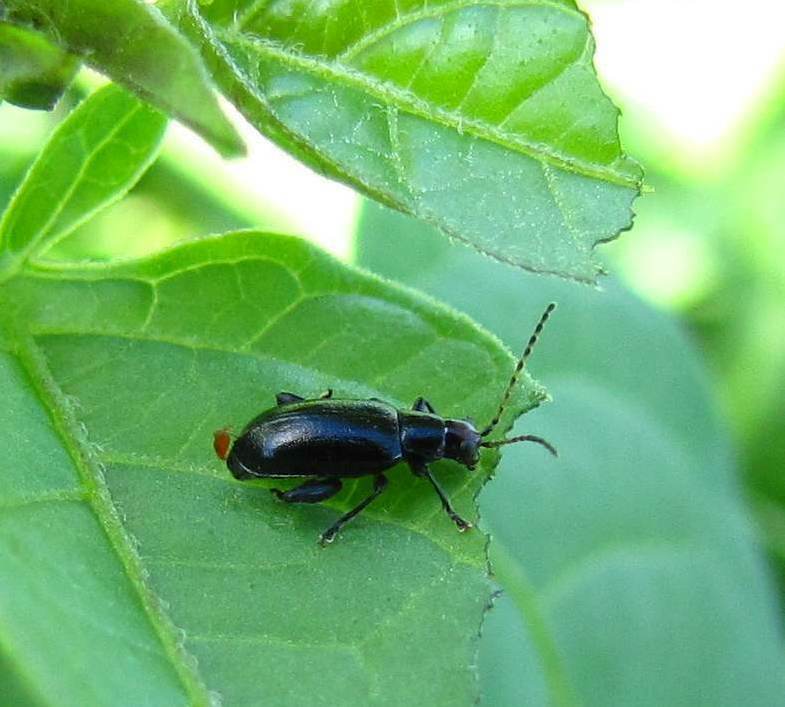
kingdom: Animalia
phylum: Arthropoda
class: Insecta
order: Coleoptera
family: Chrysomelidae
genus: Systena
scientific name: Systena frontalis
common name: Red-headed flea beetle
